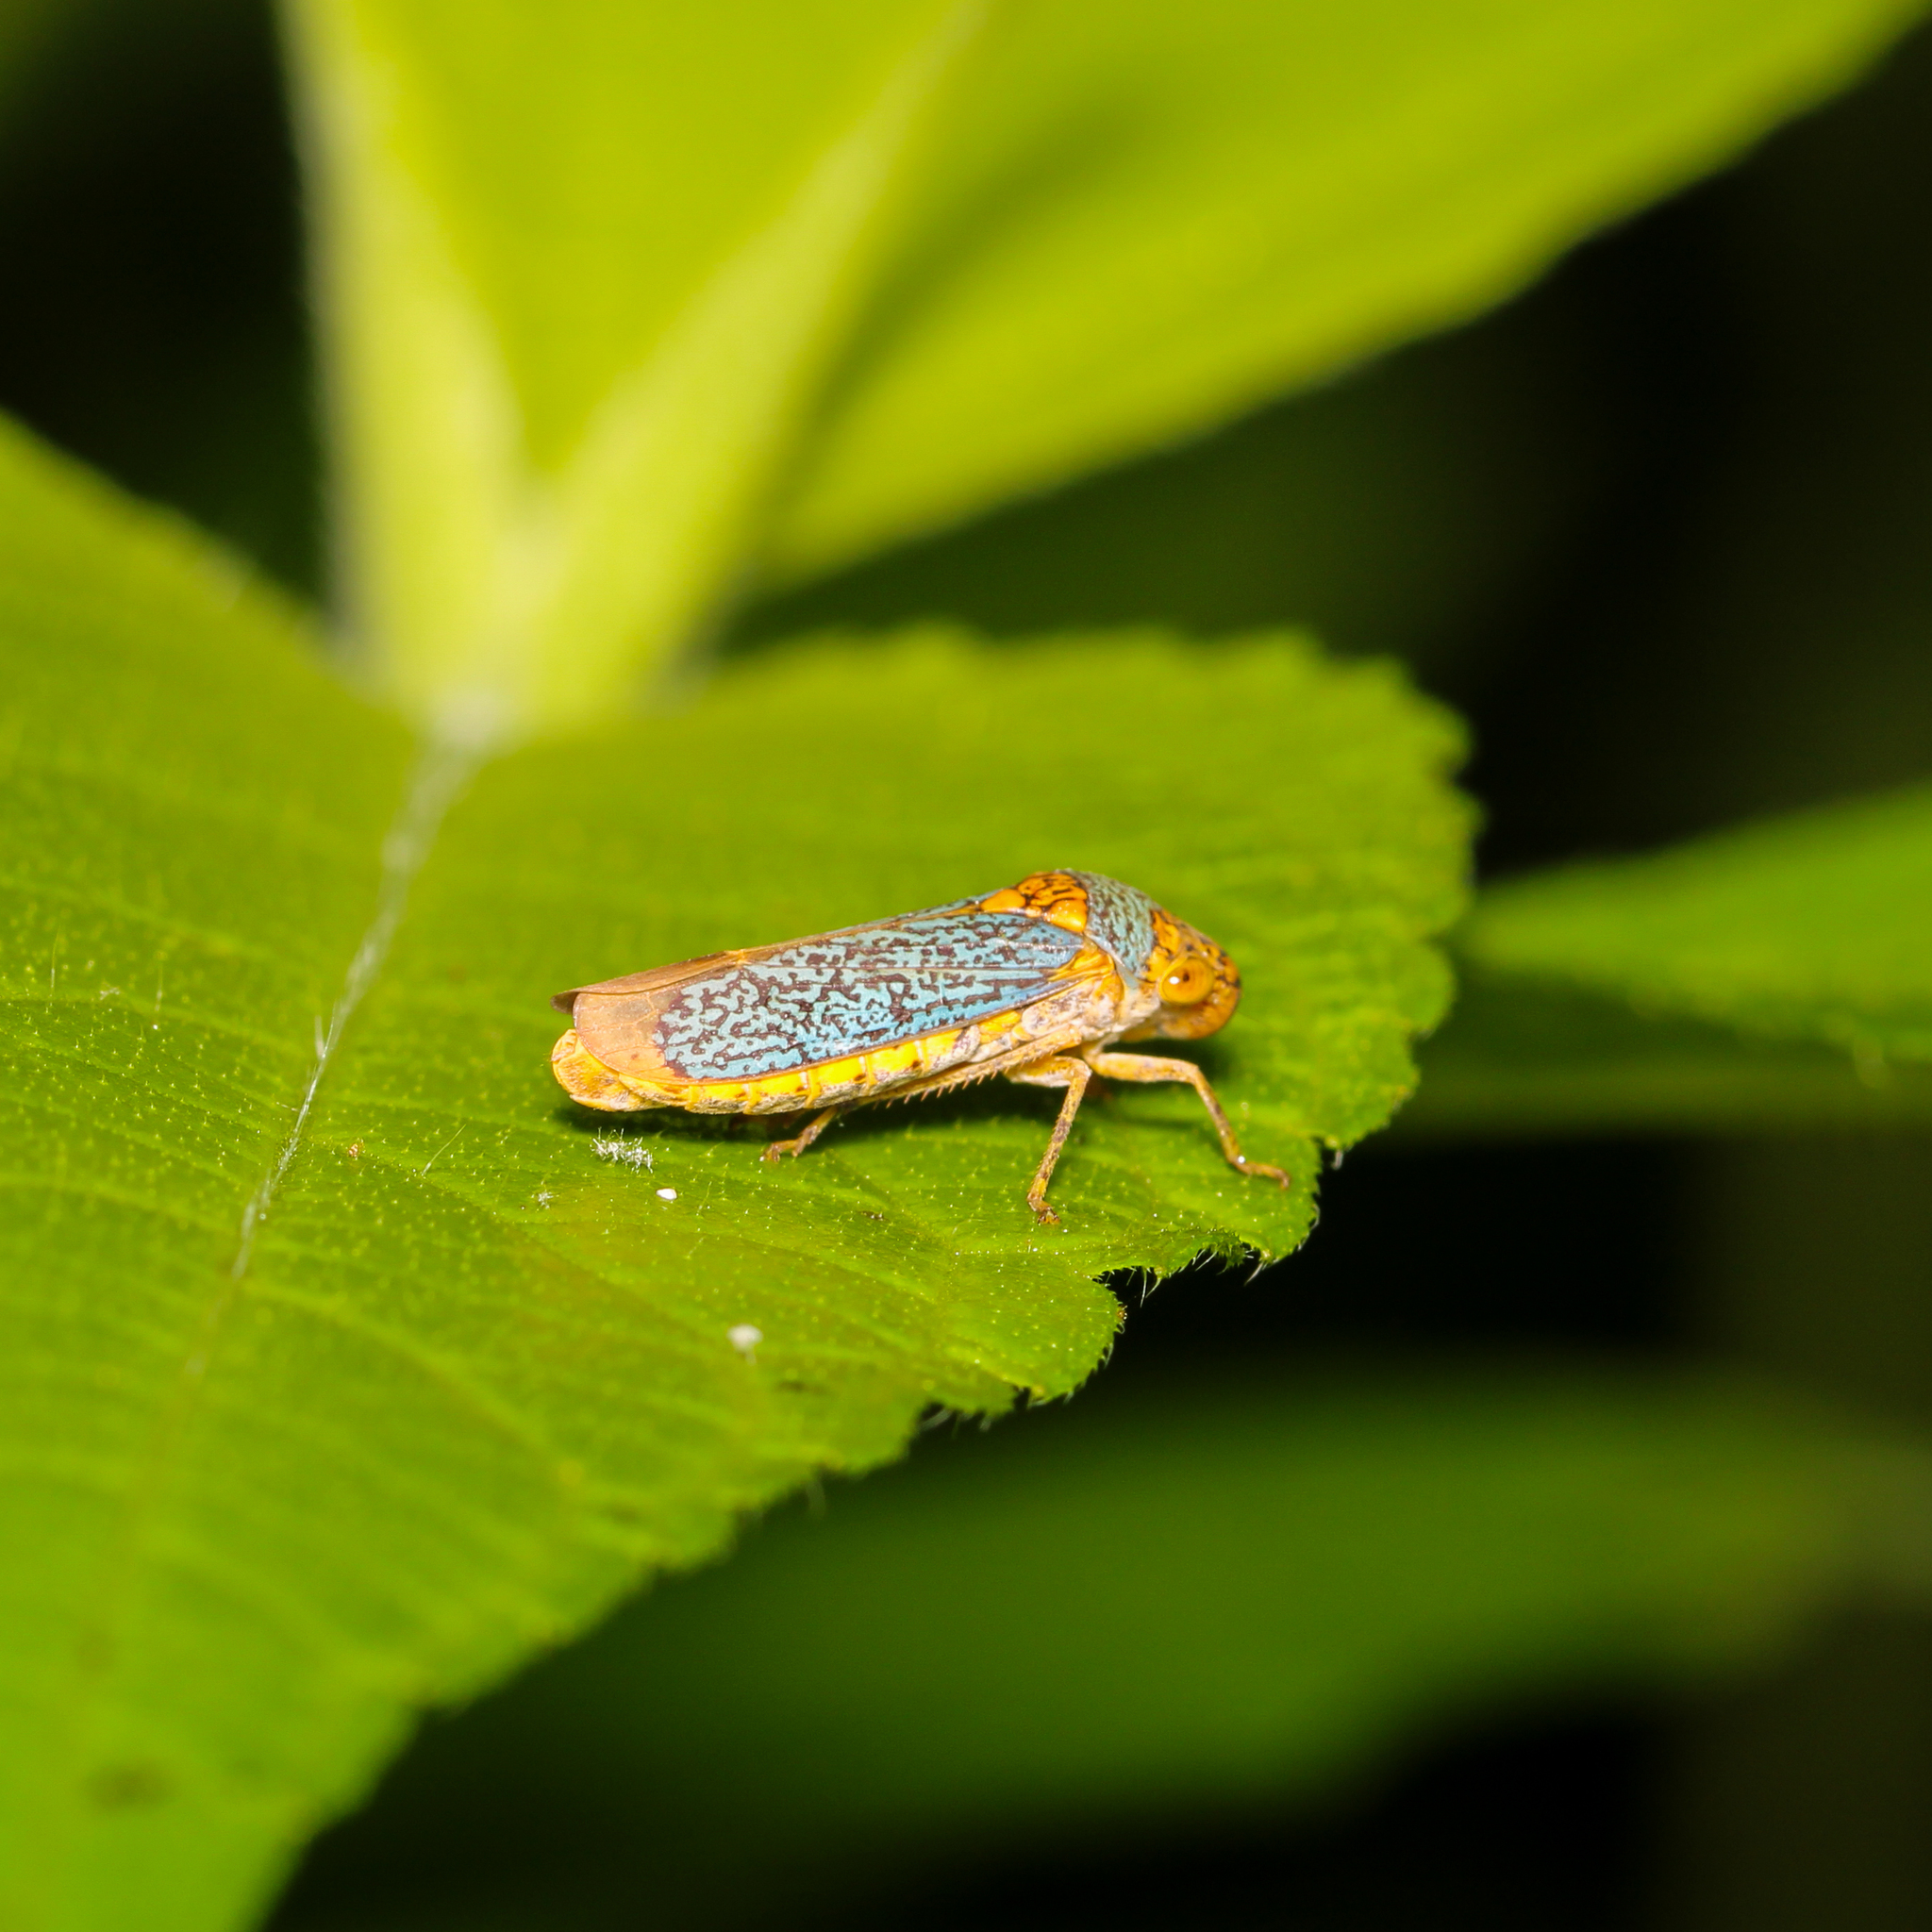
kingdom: Animalia
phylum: Arthropoda
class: Insecta
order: Hemiptera
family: Cicadellidae
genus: Oncometopia
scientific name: Oncometopia orbona
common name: Broad-headed sharpshooter
